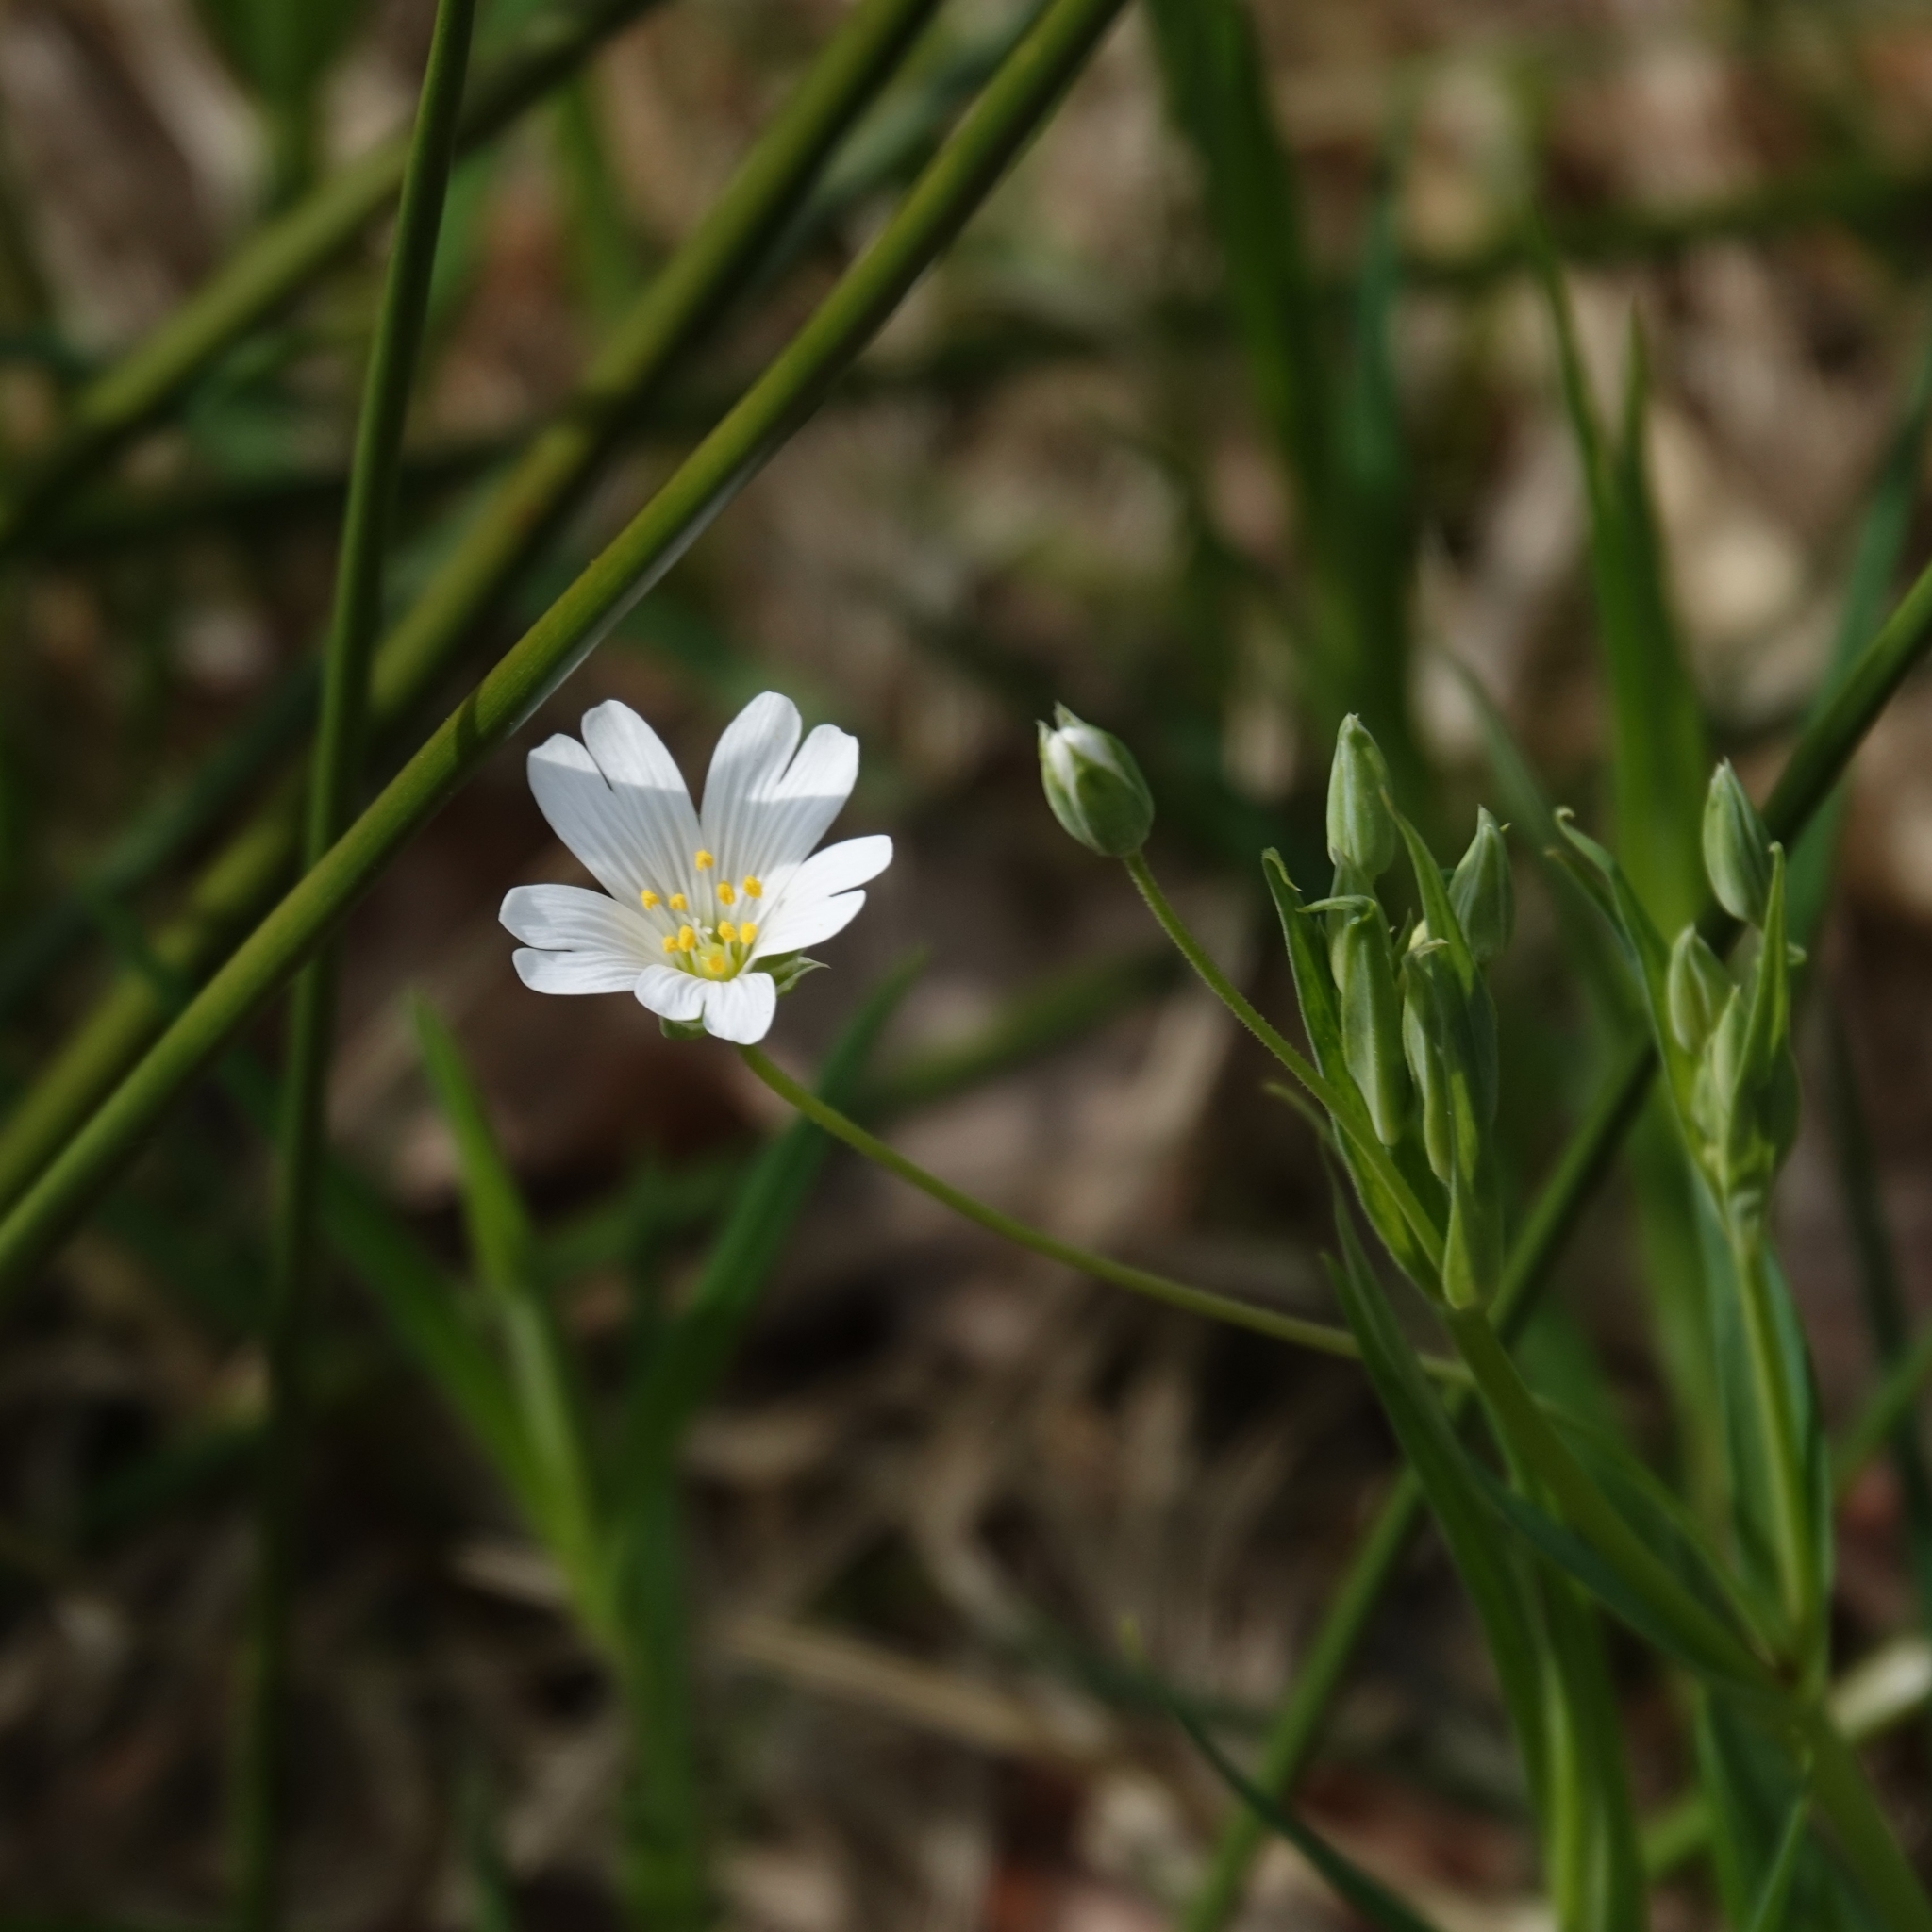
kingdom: Plantae
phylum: Tracheophyta
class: Magnoliopsida
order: Caryophyllales
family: Caryophyllaceae
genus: Rabelera
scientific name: Rabelera holostea
